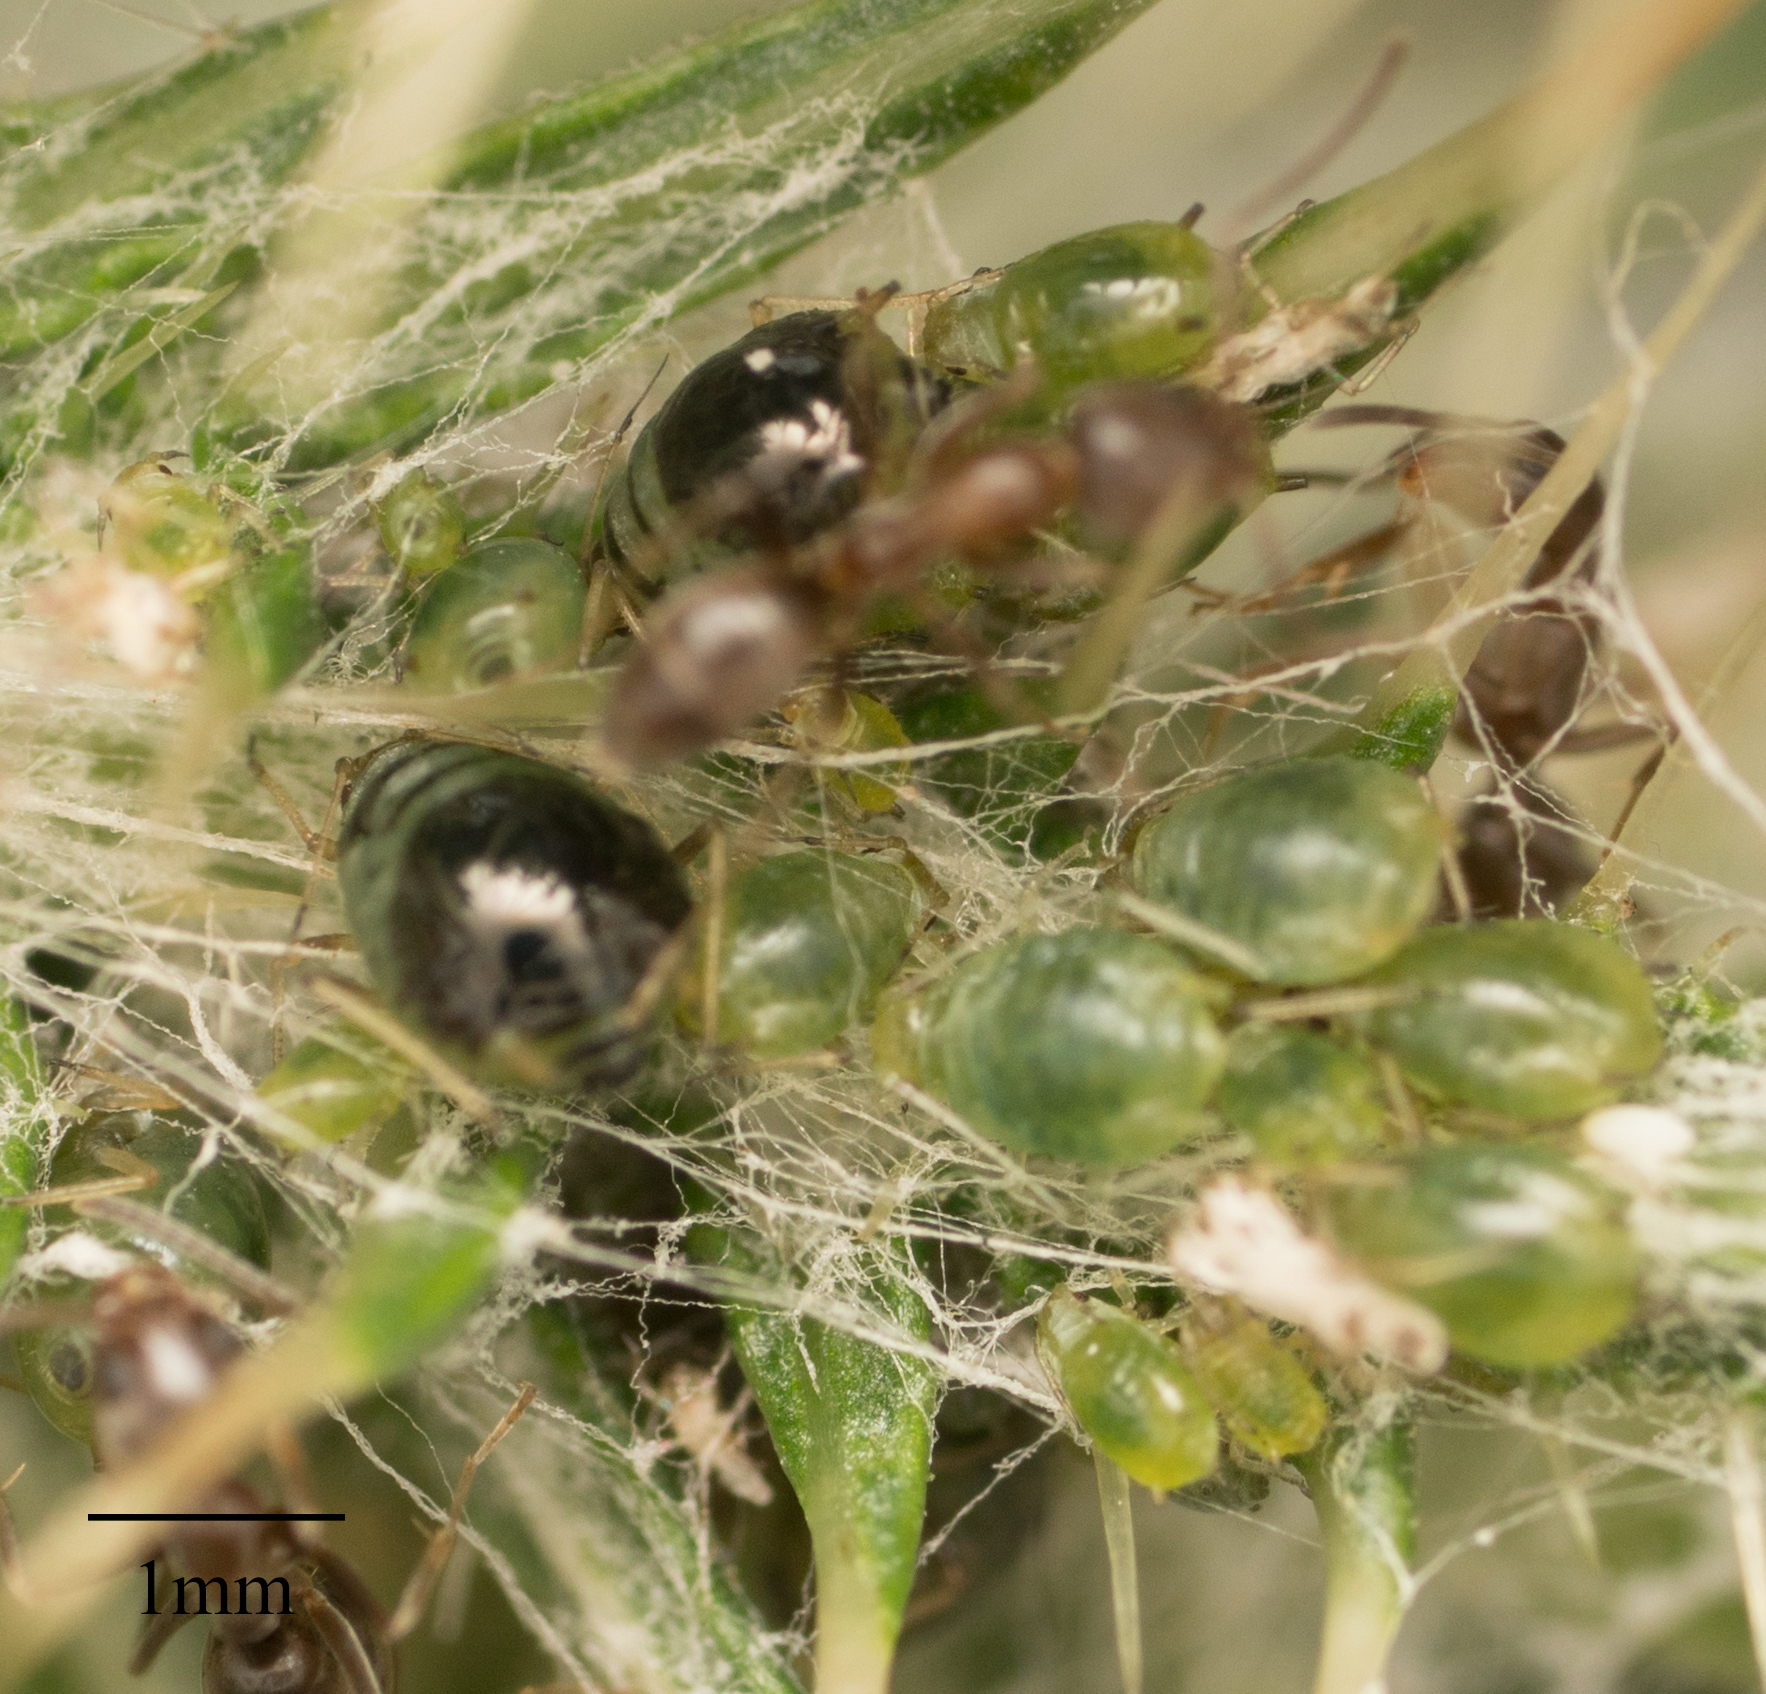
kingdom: Animalia
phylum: Arthropoda
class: Insecta
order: Hemiptera
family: Aphididae
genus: Brachycaudus
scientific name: Brachycaudus cardui
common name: Thistle aphid
